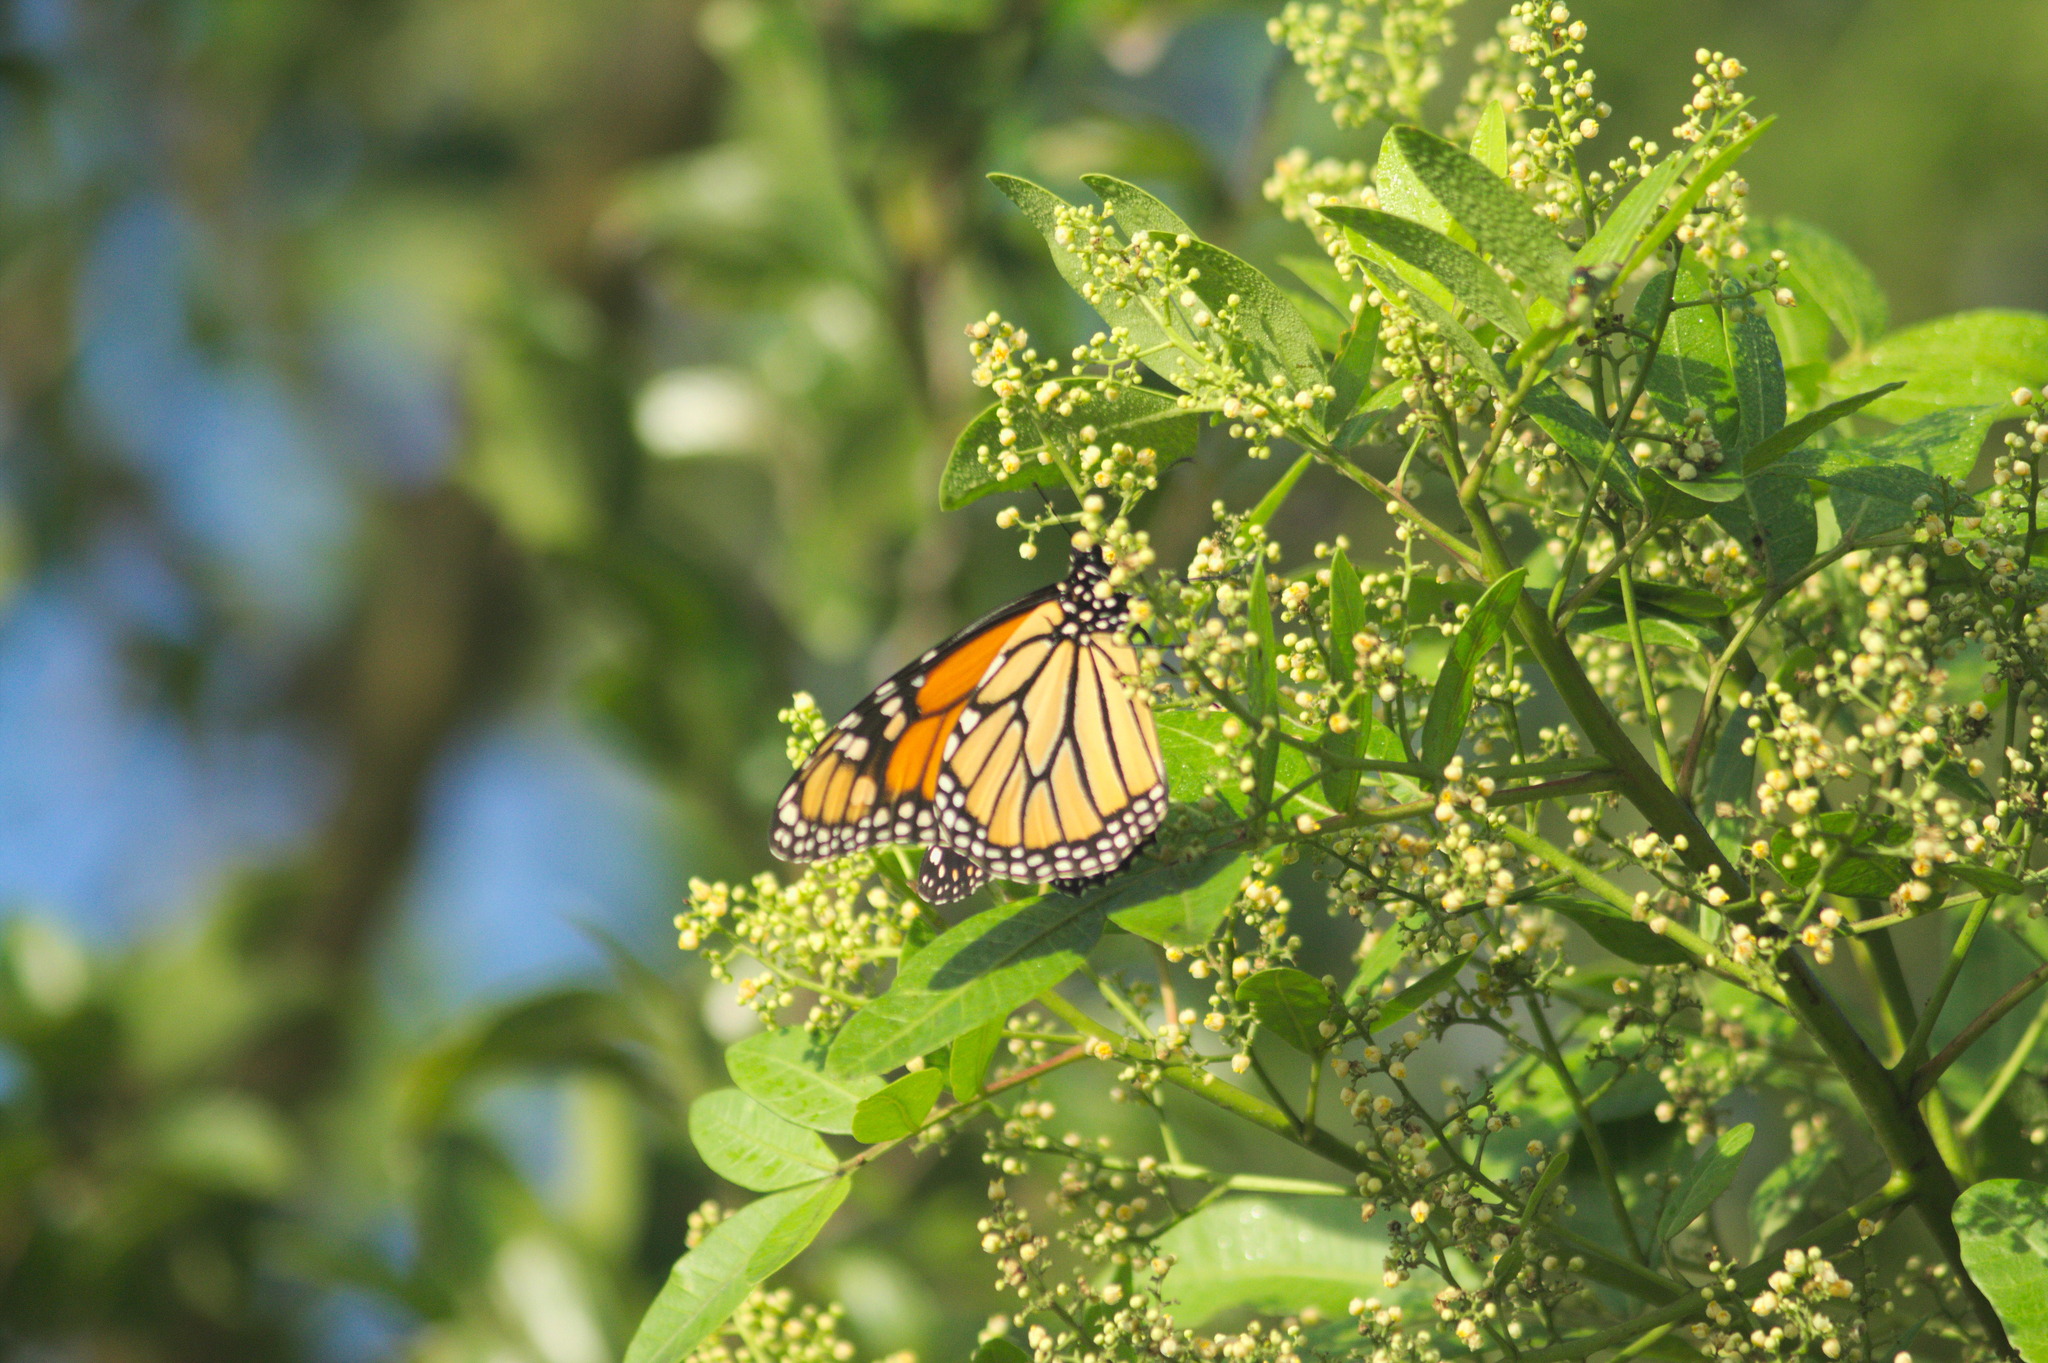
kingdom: Animalia
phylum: Arthropoda
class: Insecta
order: Lepidoptera
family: Nymphalidae
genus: Danaus
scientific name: Danaus plexippus
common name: Monarch
